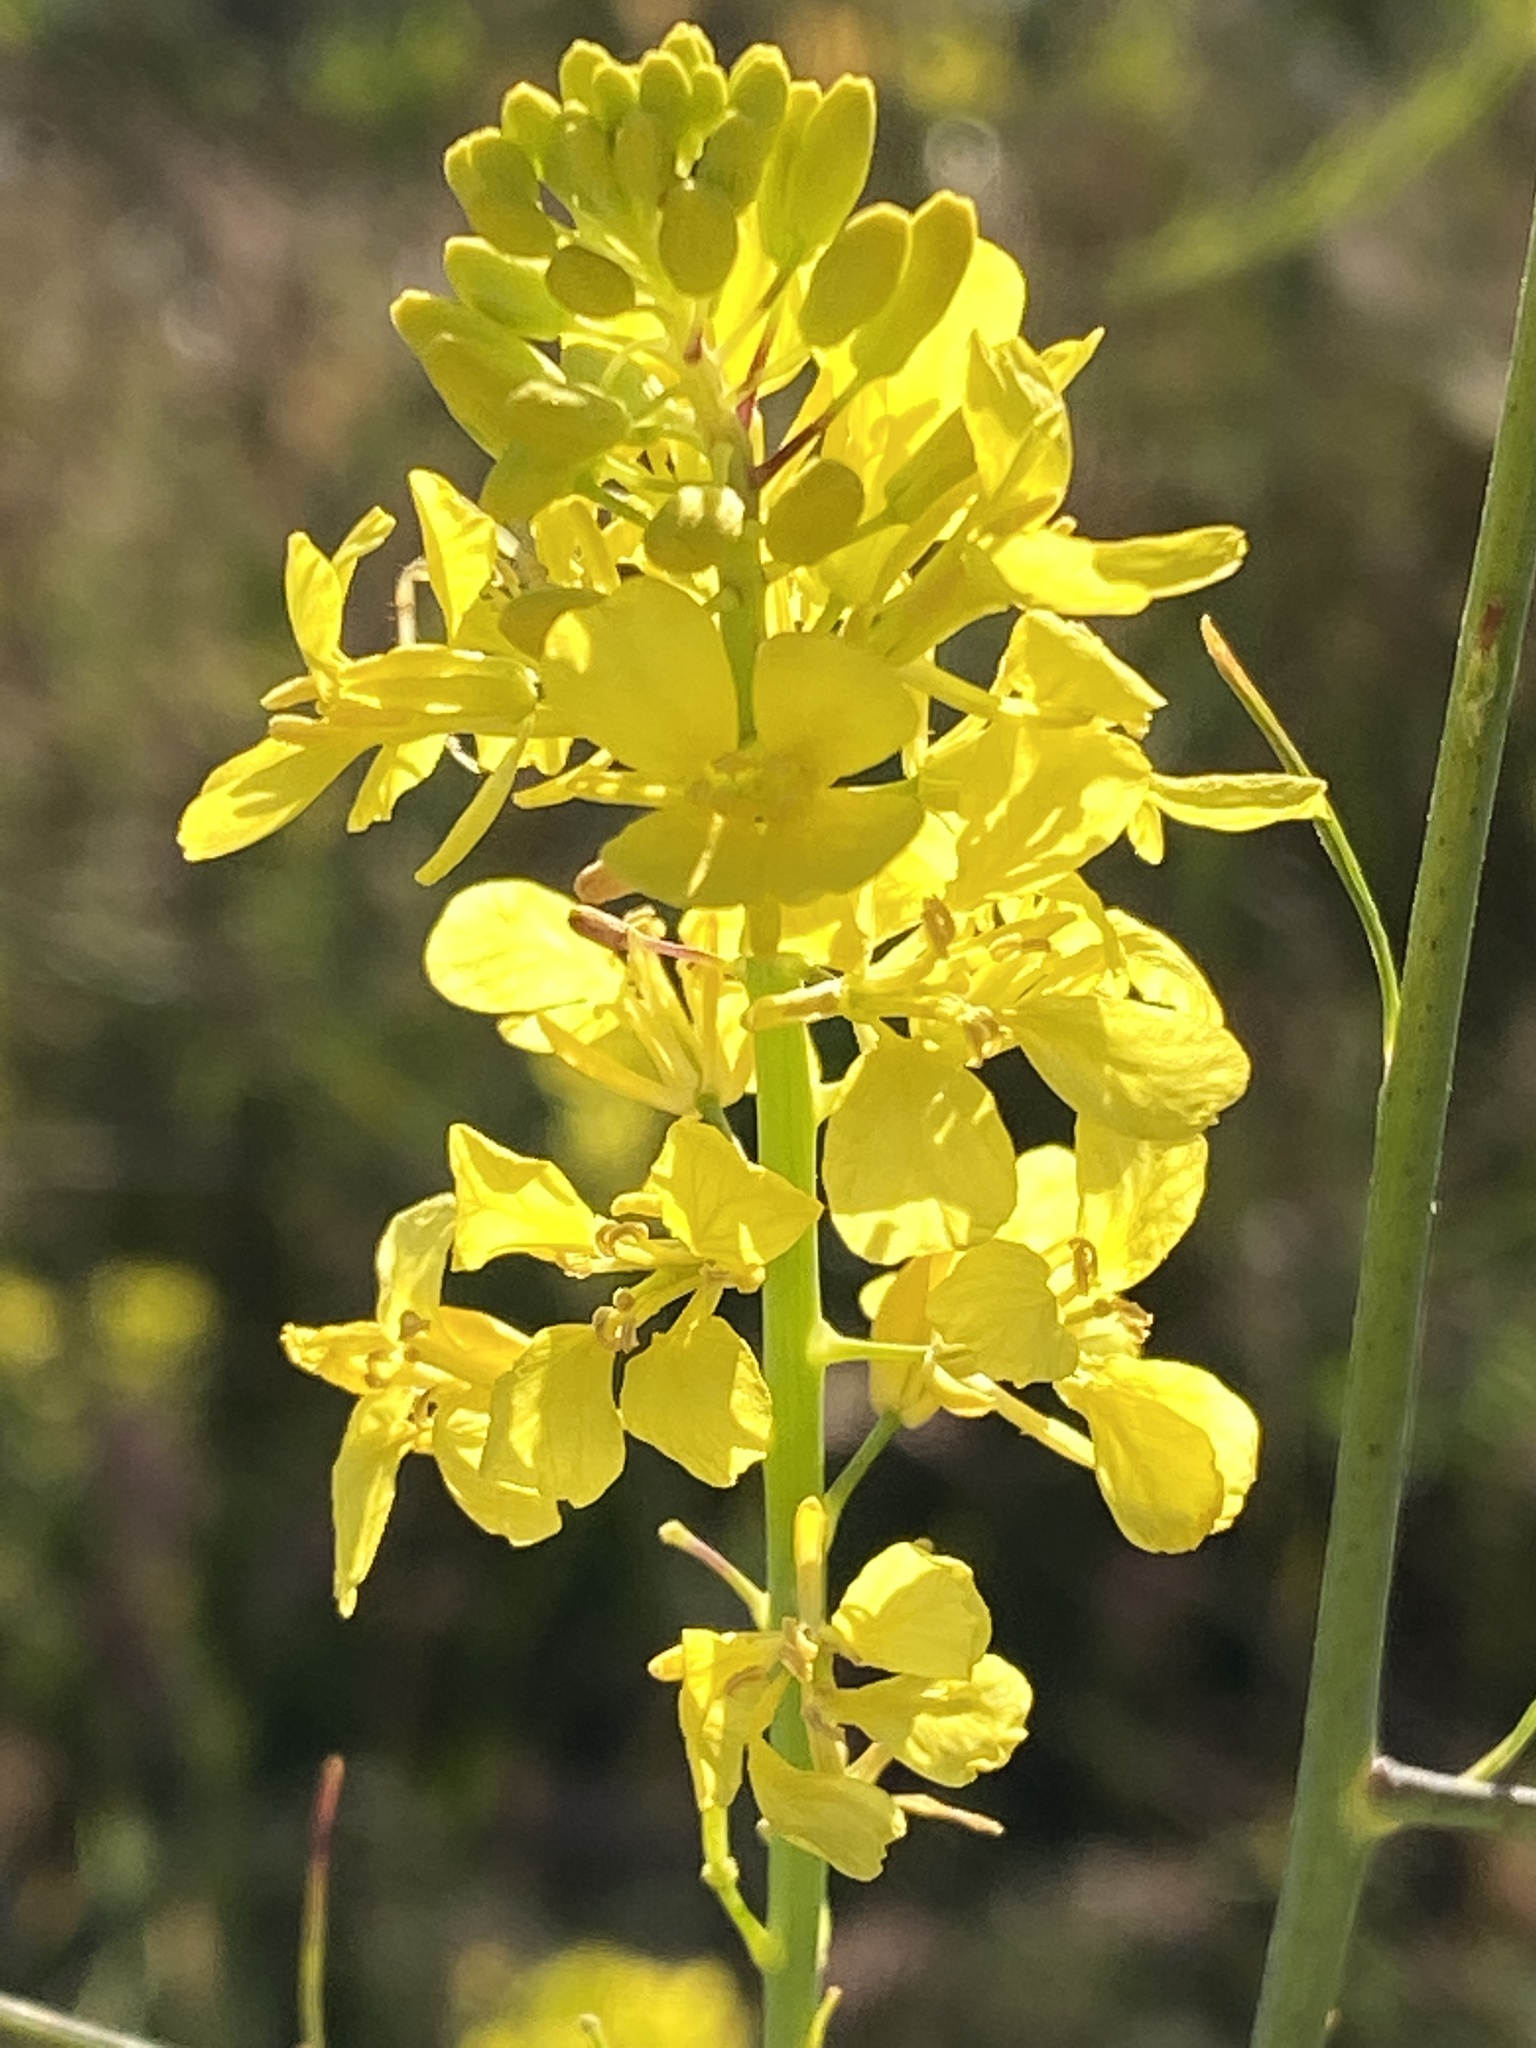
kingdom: Plantae
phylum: Tracheophyta
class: Magnoliopsida
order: Brassicales
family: Brassicaceae
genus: Brassica
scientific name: Brassica nigra
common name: Black mustard
